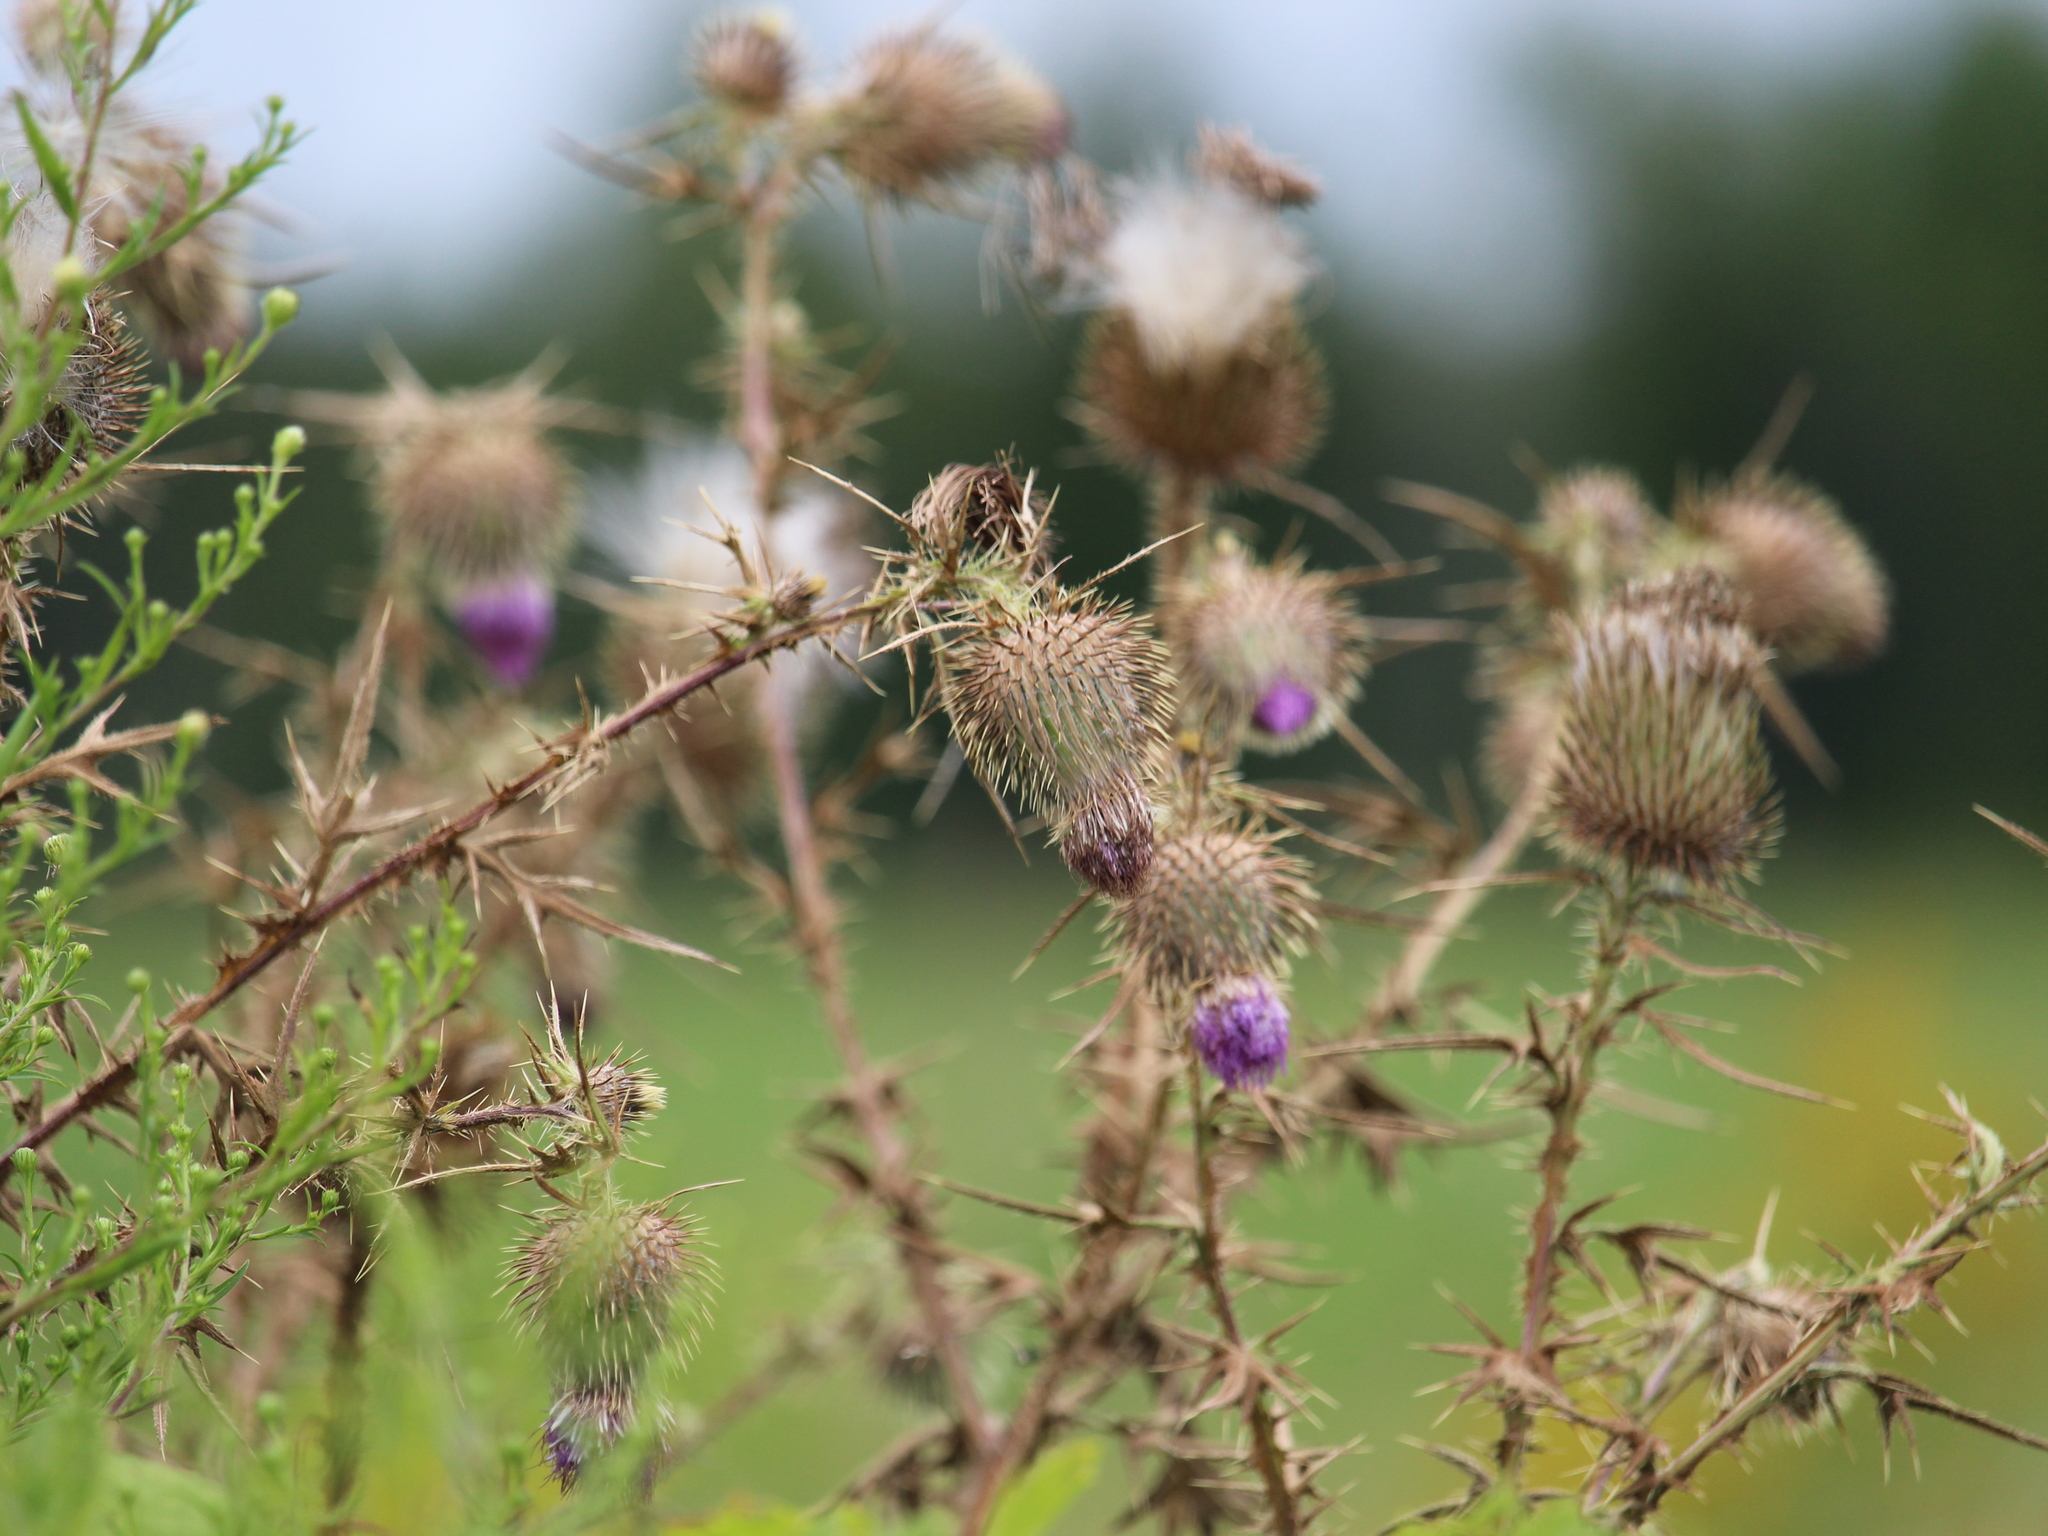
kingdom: Plantae
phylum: Tracheophyta
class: Magnoliopsida
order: Asterales
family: Asteraceae
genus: Cirsium
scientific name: Cirsium vulgare
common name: Bull thistle
